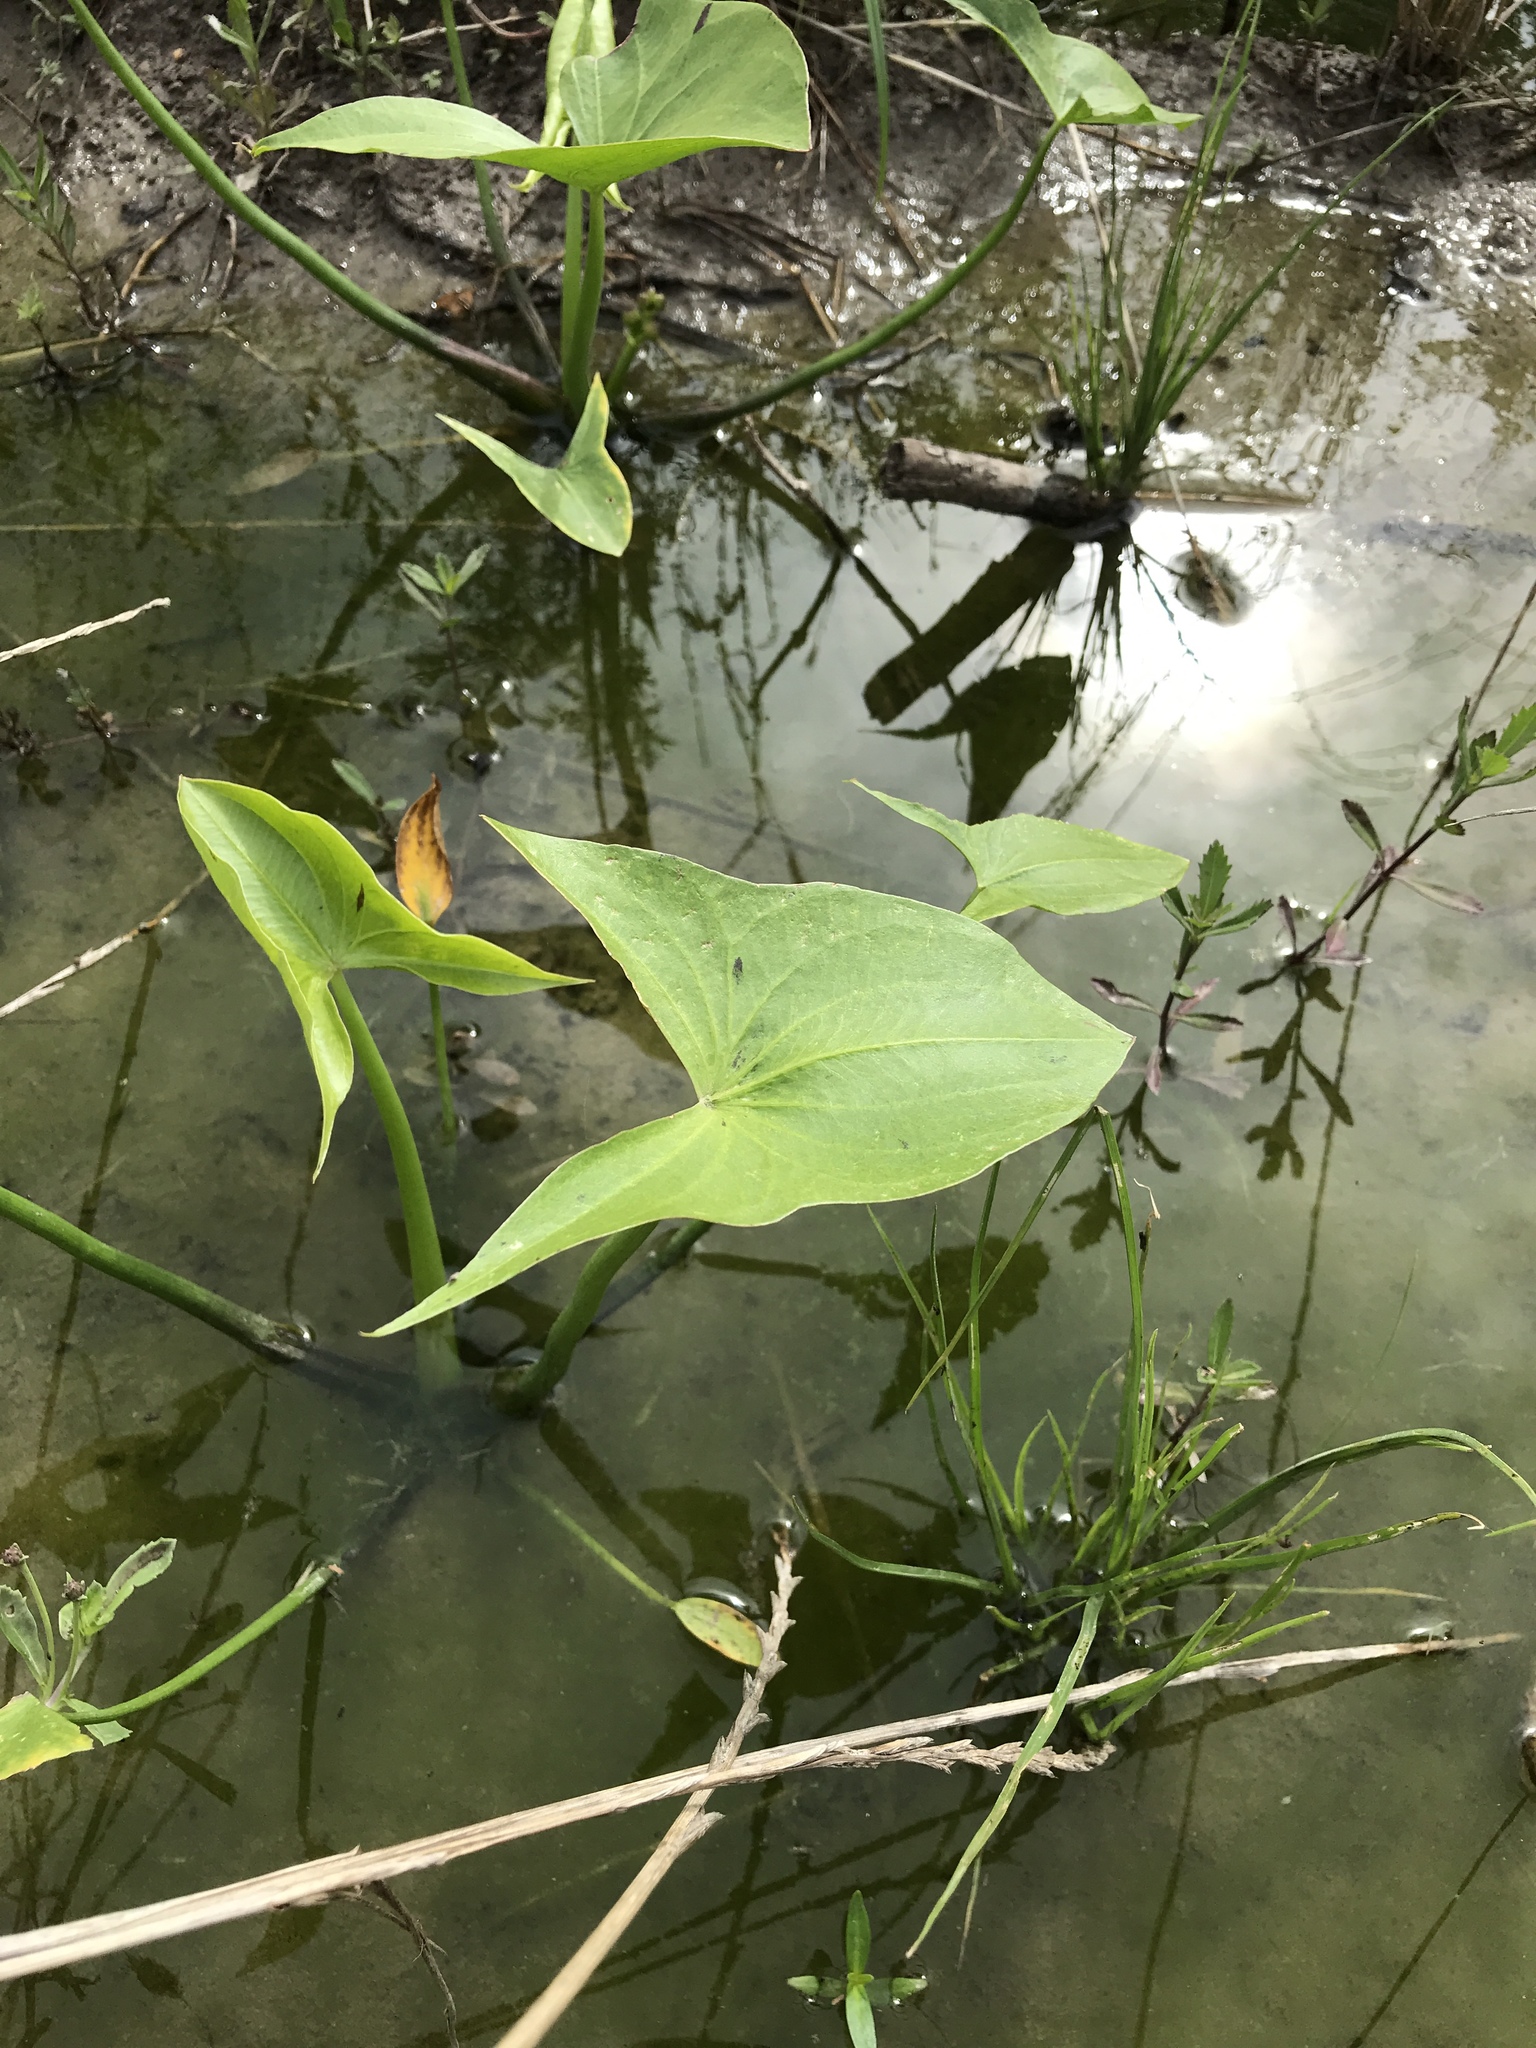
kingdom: Plantae
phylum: Tracheophyta
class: Liliopsida
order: Alismatales
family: Alismataceae
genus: Sagittaria
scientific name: Sagittaria calycina
